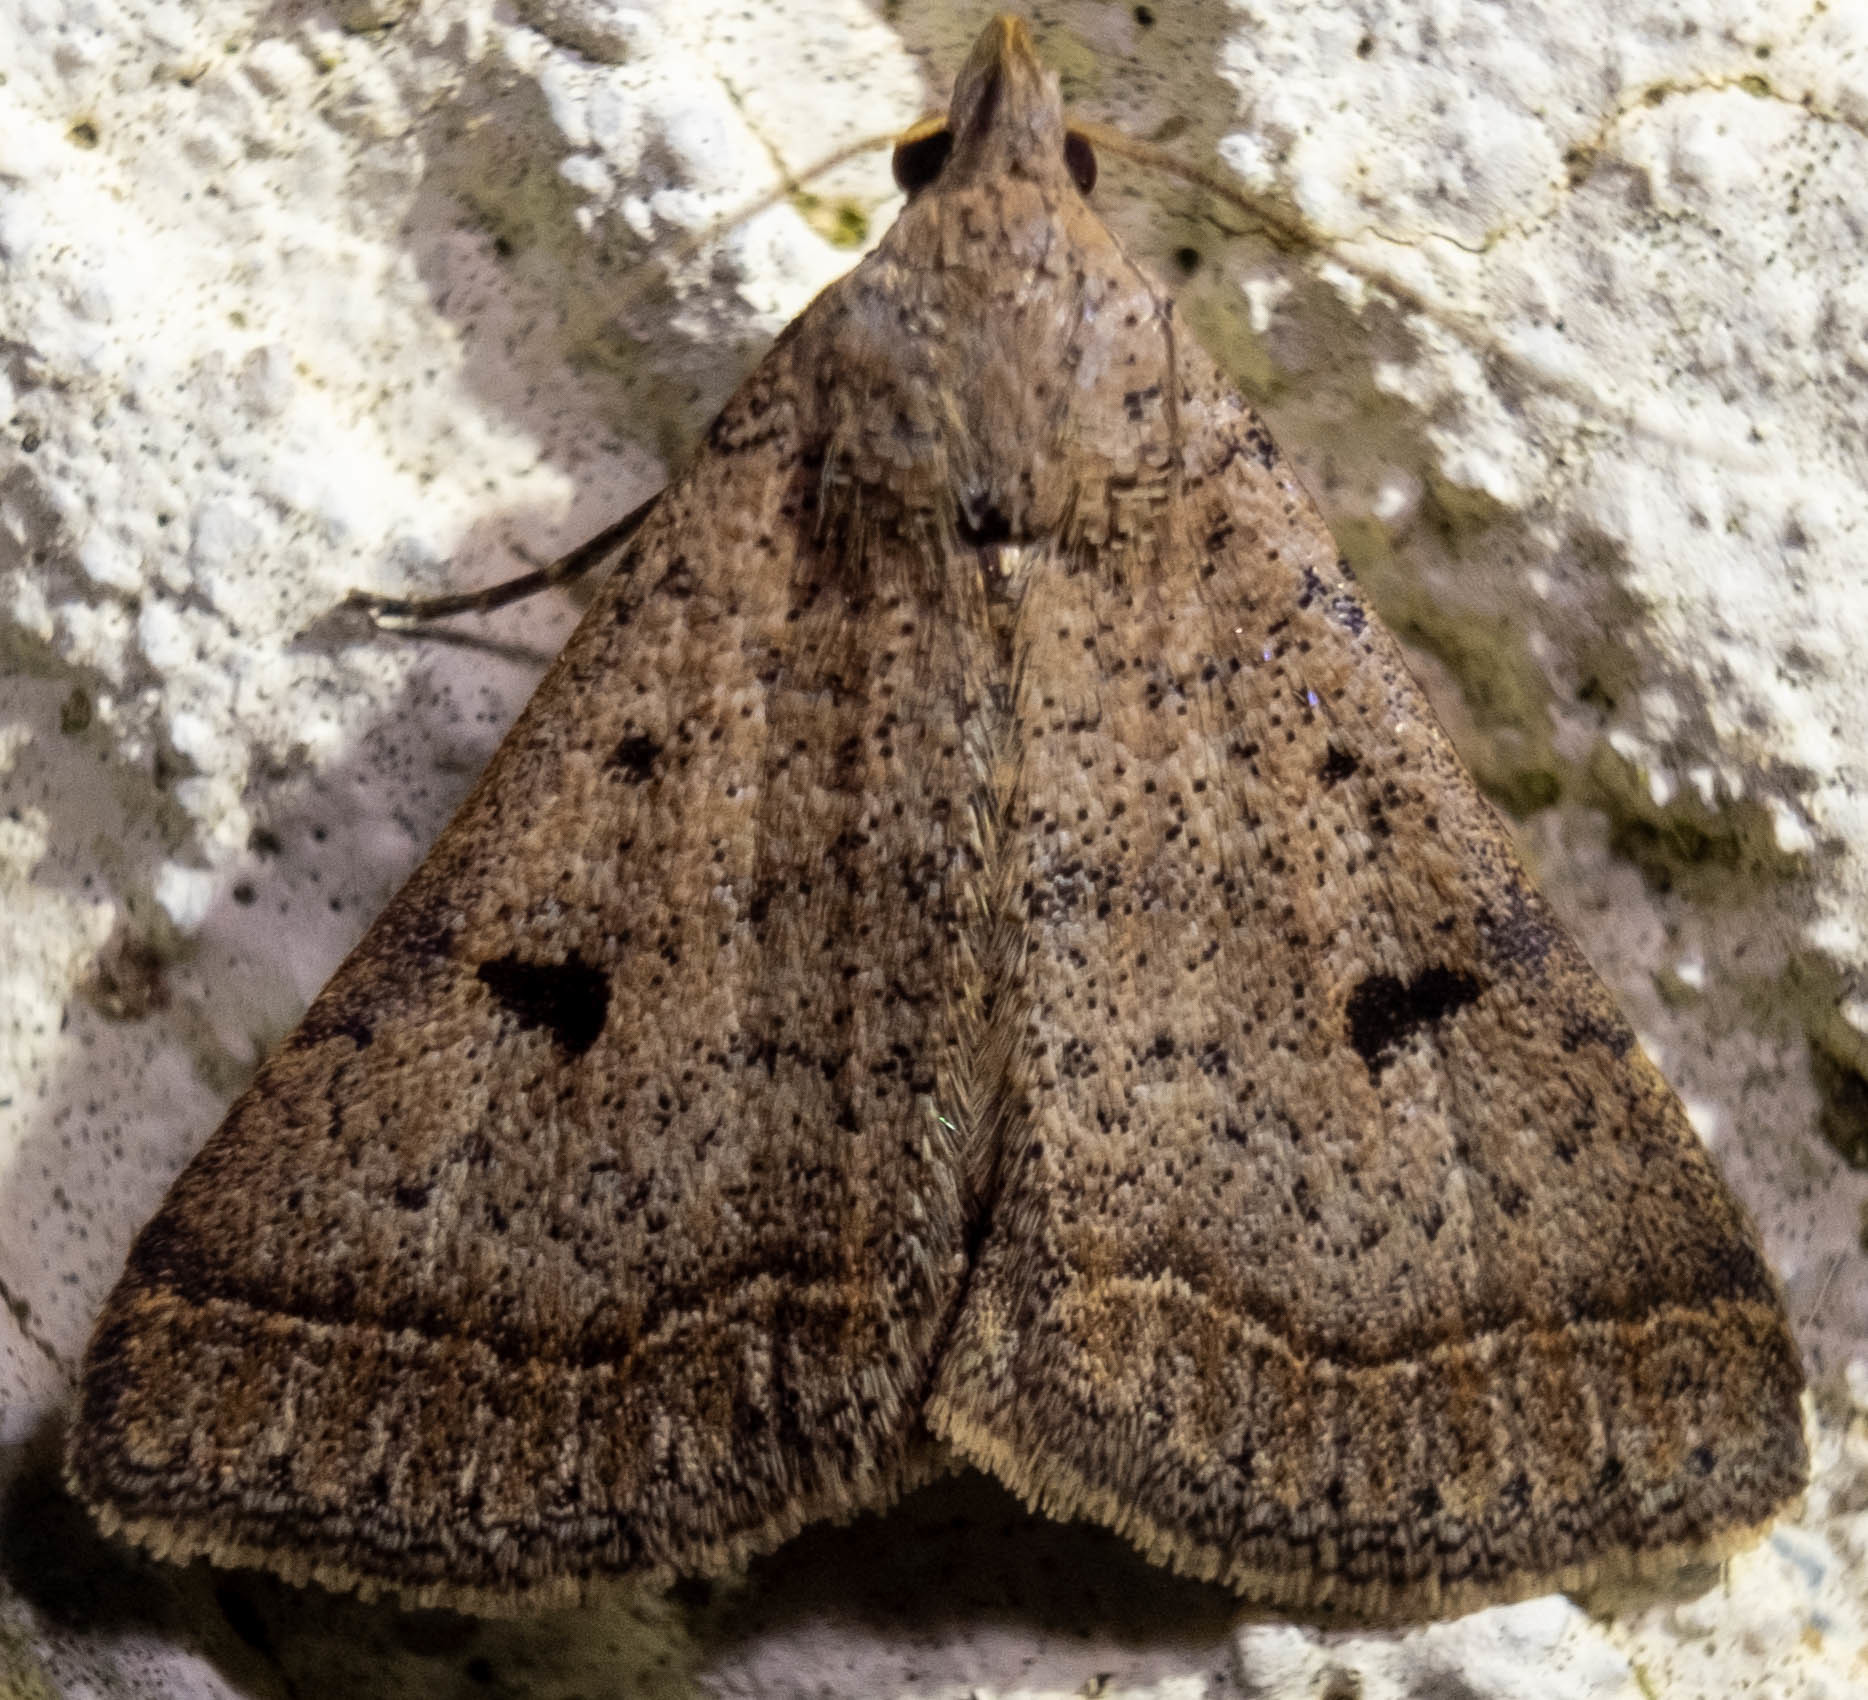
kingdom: Animalia
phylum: Arthropoda
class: Insecta
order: Lepidoptera
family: Erebidae
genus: Bleptina
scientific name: Bleptina caradrinalis
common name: Bent-winged owlet
